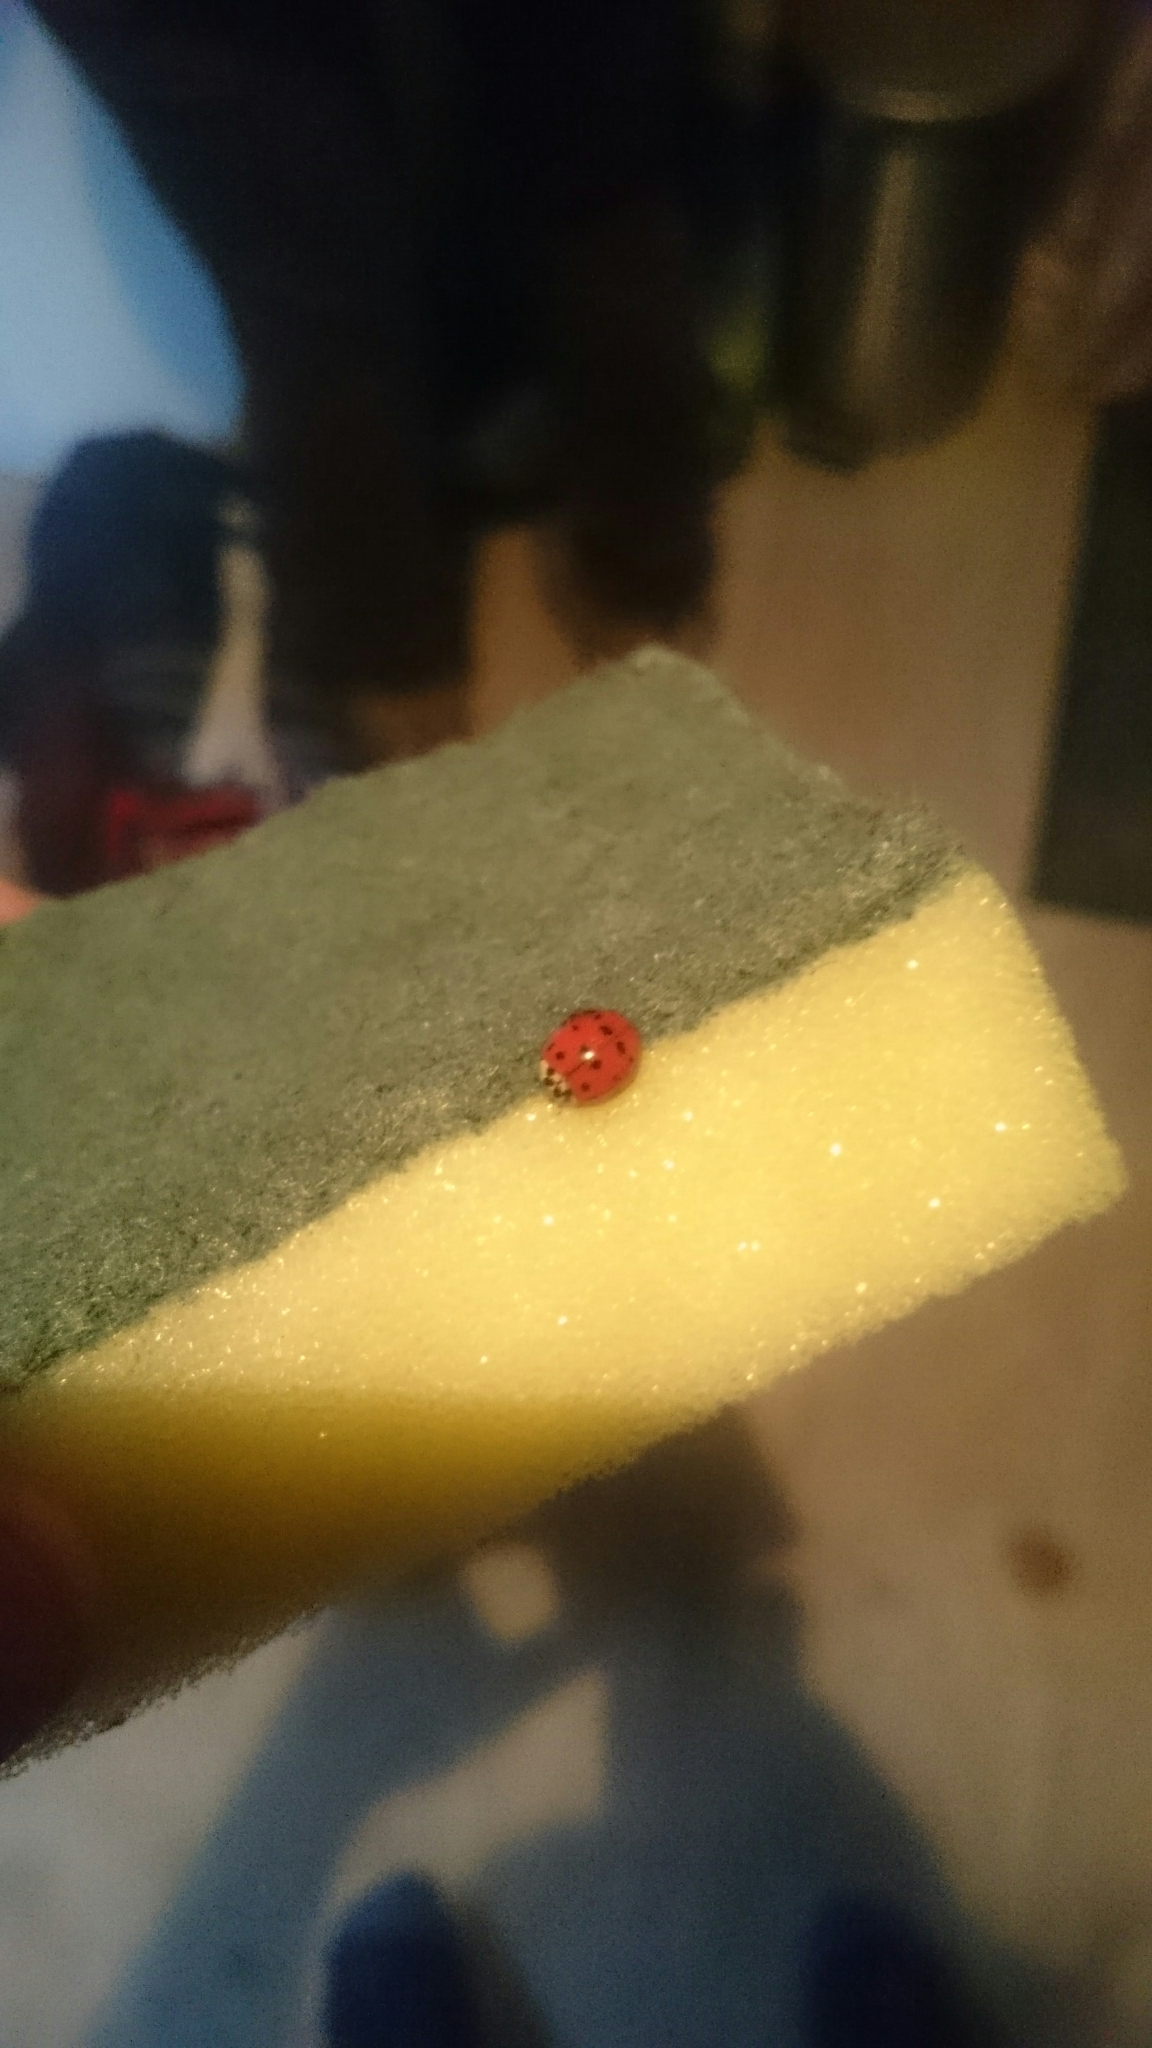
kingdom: Animalia
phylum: Arthropoda
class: Insecta
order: Coleoptera
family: Coccinellidae
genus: Harmonia
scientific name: Harmonia axyridis
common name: Harlequin ladybird
